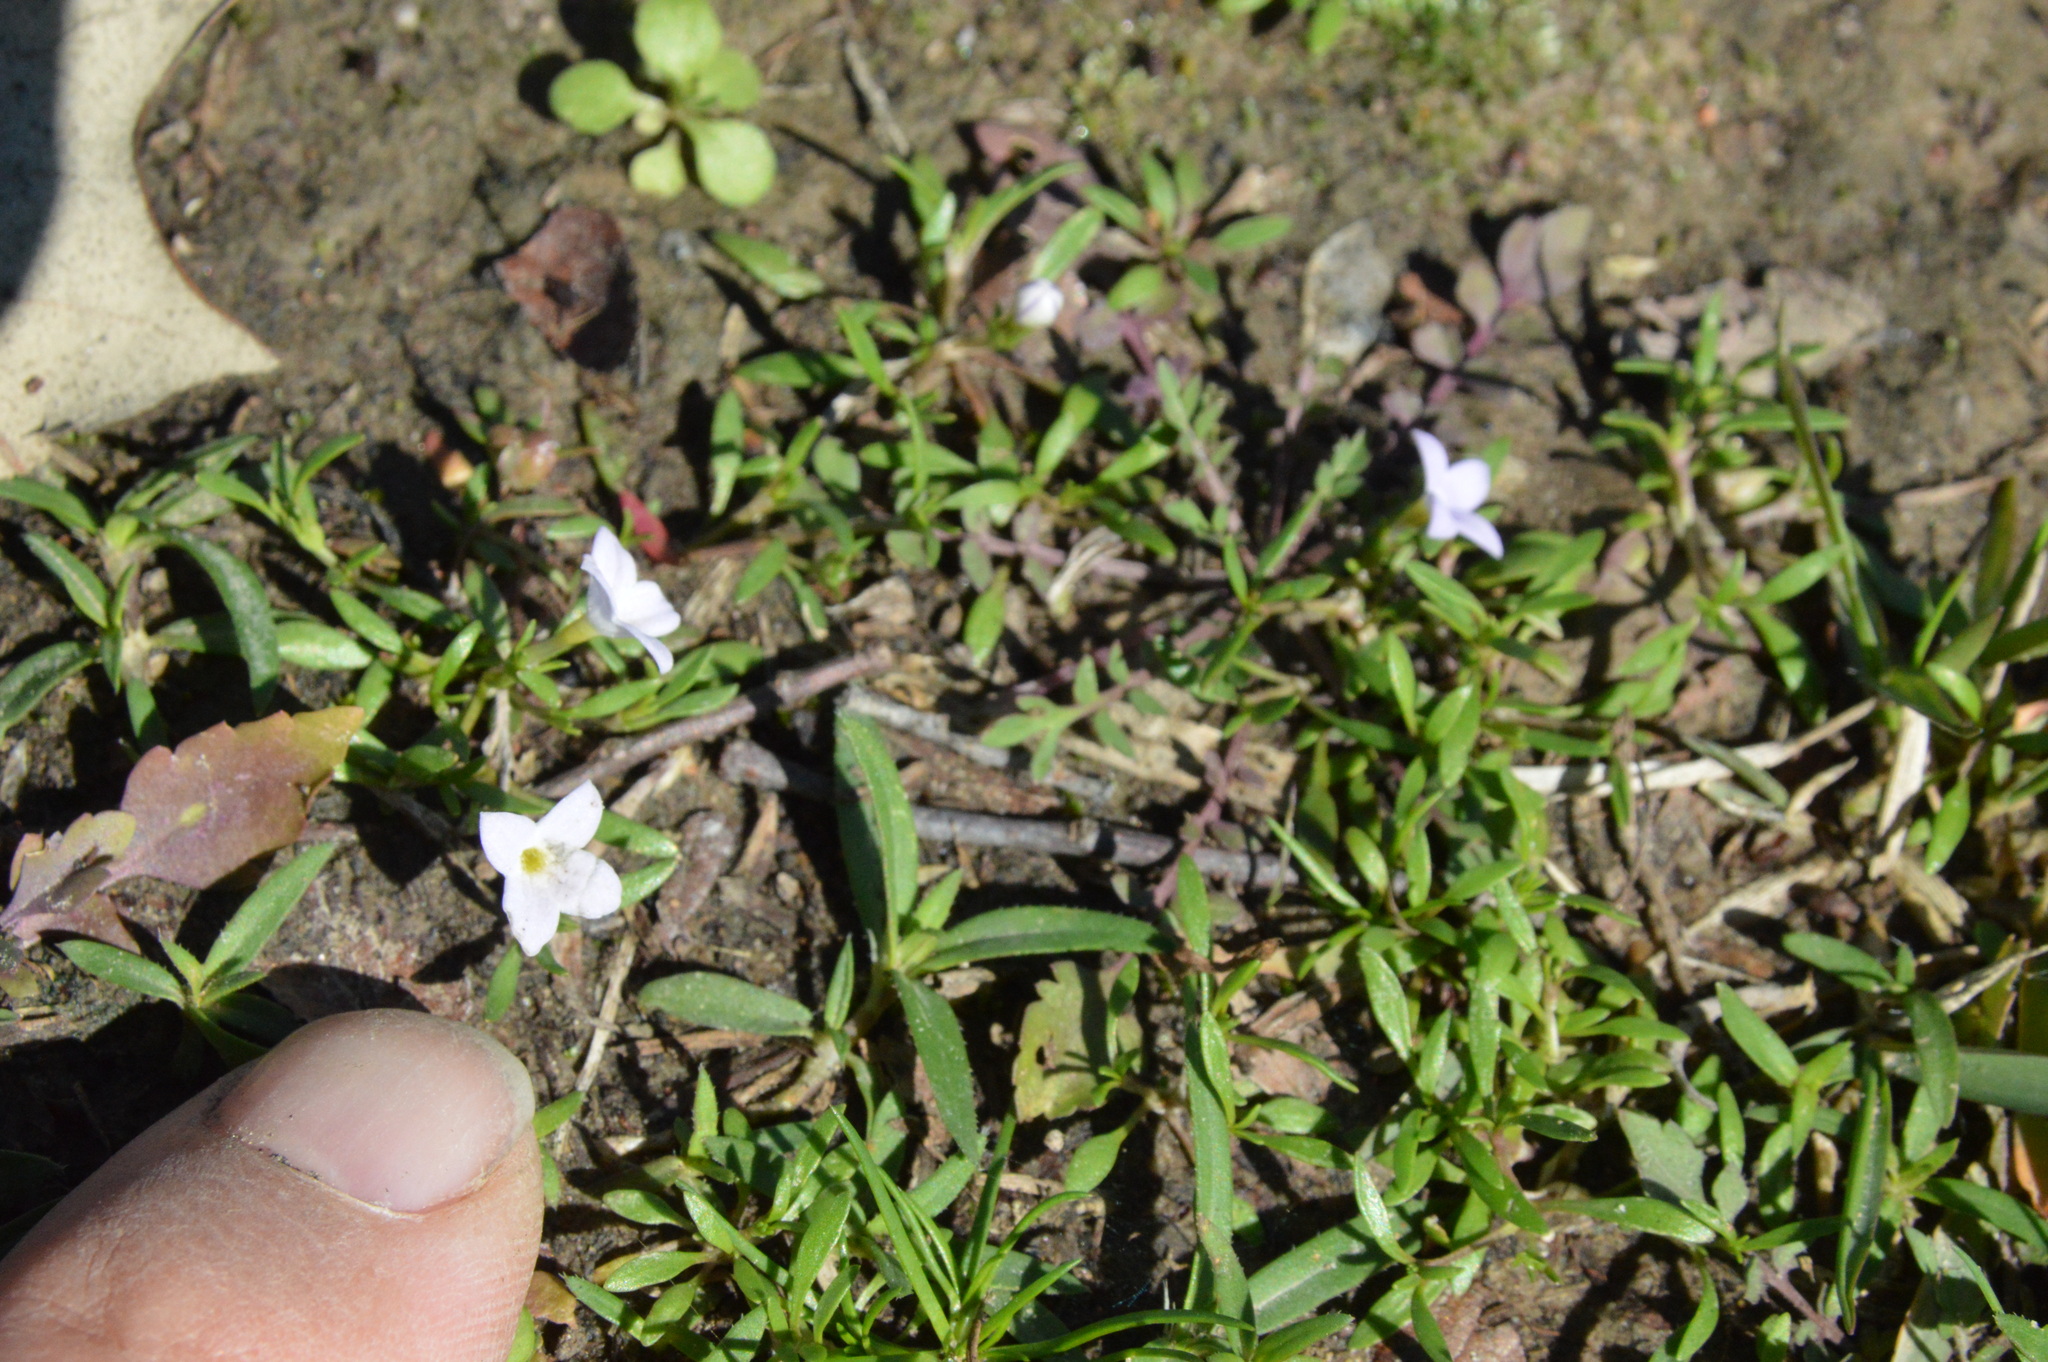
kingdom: Plantae
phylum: Tracheophyta
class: Magnoliopsida
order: Gentianales
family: Rubiaceae
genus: Houstonia
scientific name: Houstonia rosea
